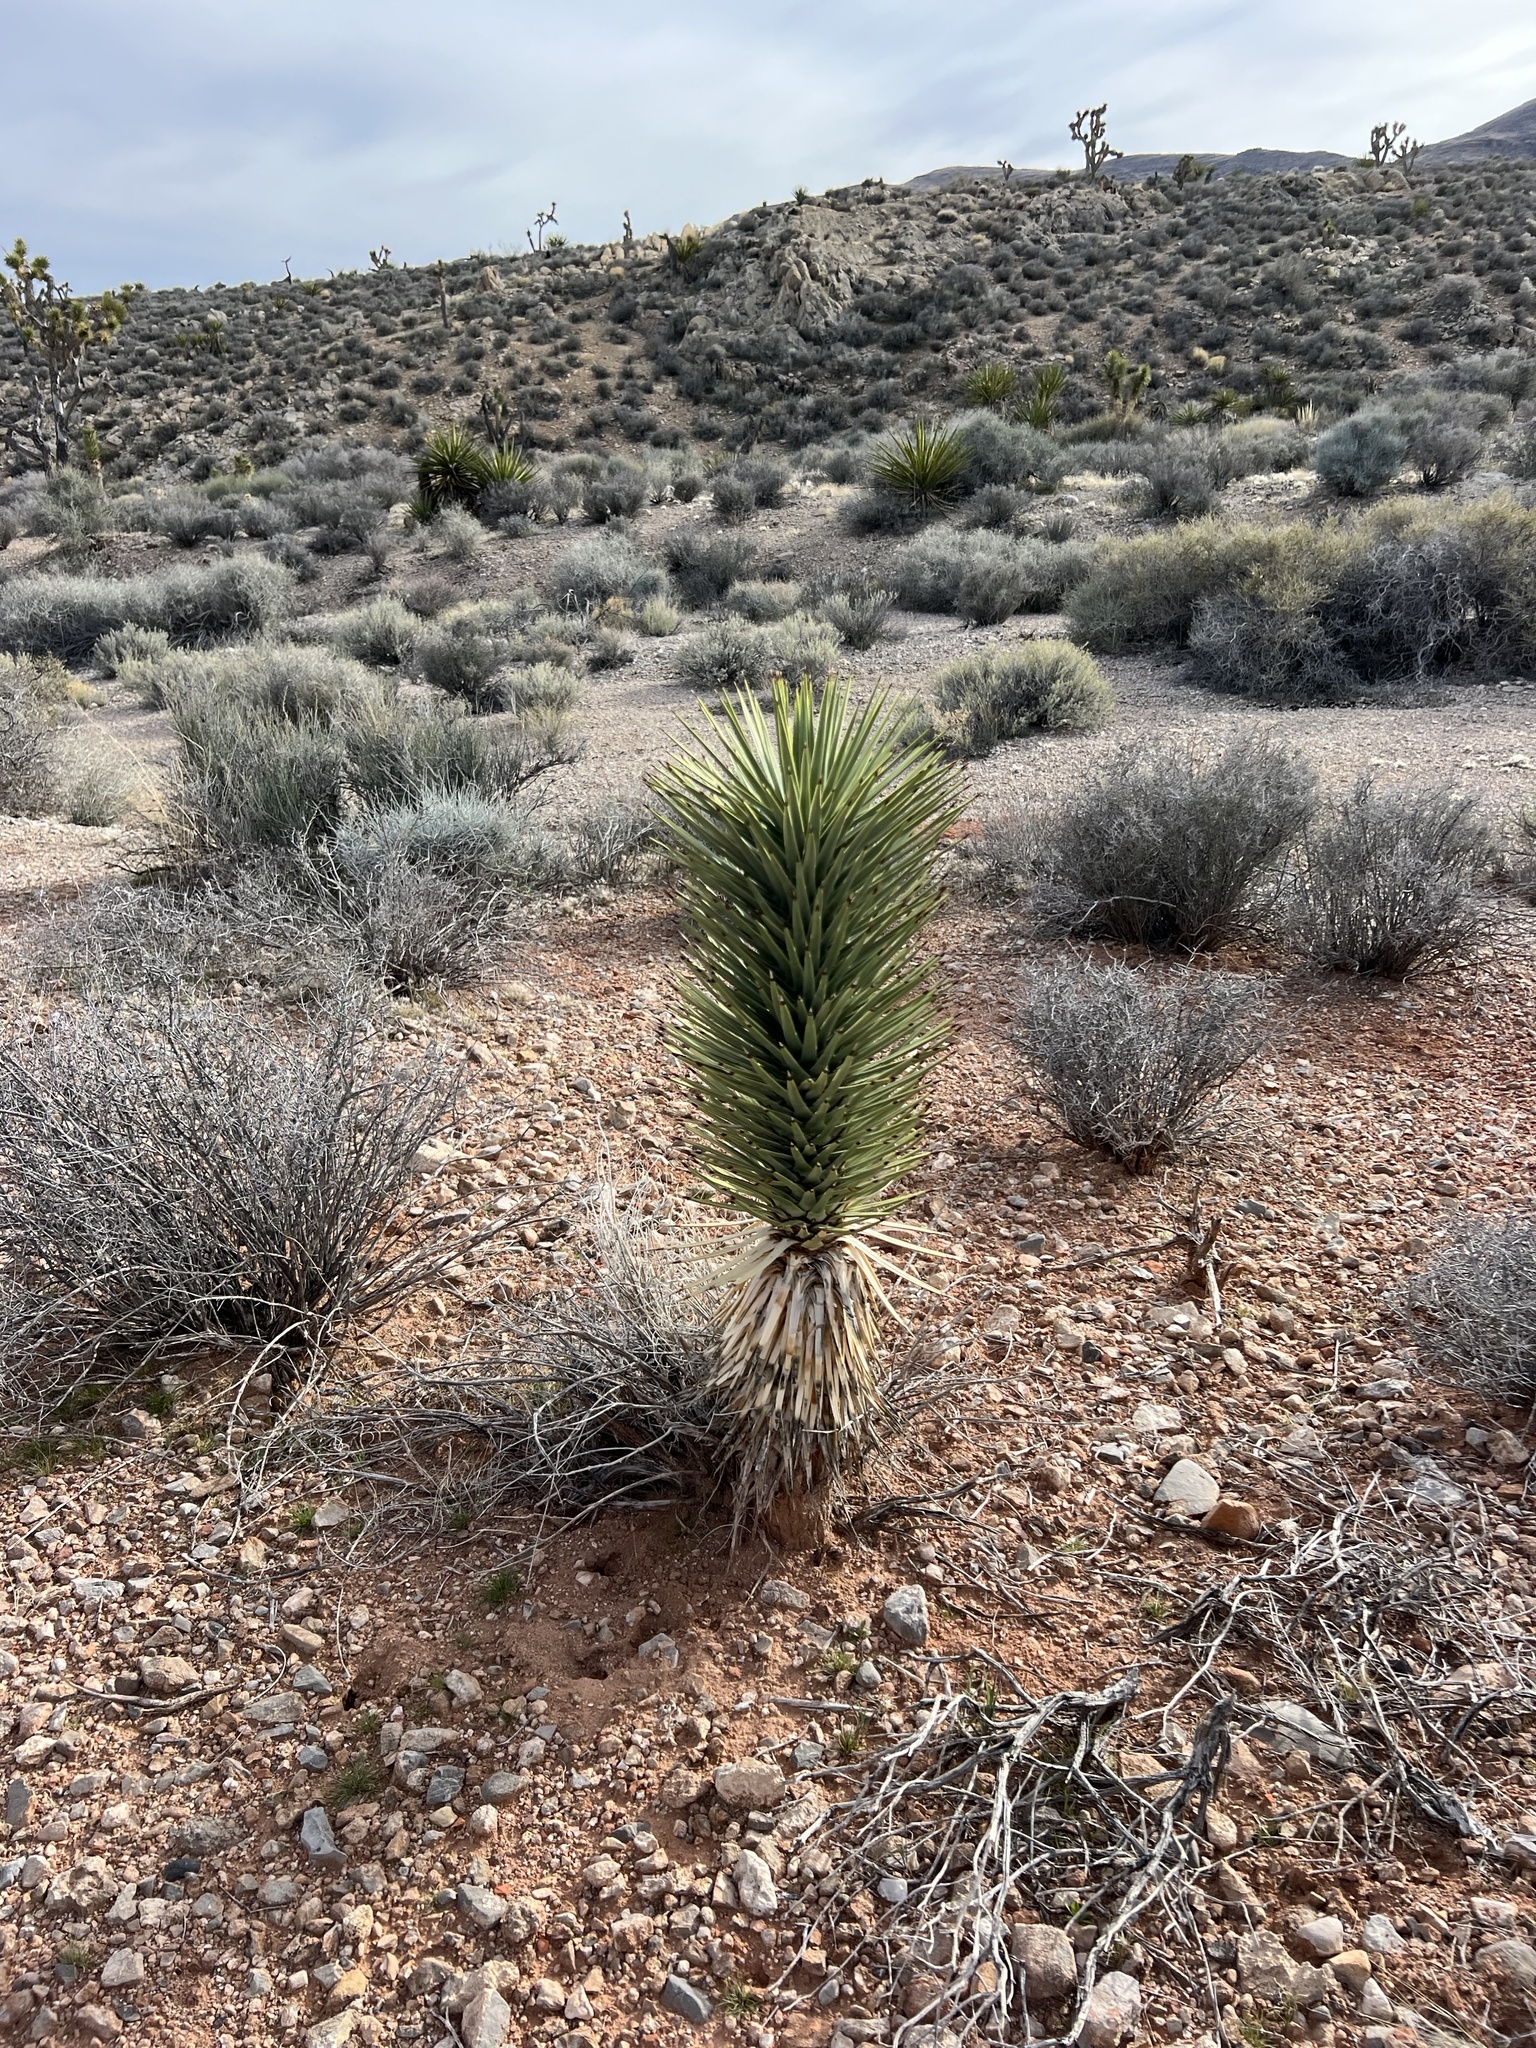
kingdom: Plantae
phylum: Tracheophyta
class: Liliopsida
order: Asparagales
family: Asparagaceae
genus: Yucca
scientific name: Yucca brevifolia
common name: Joshua tree
